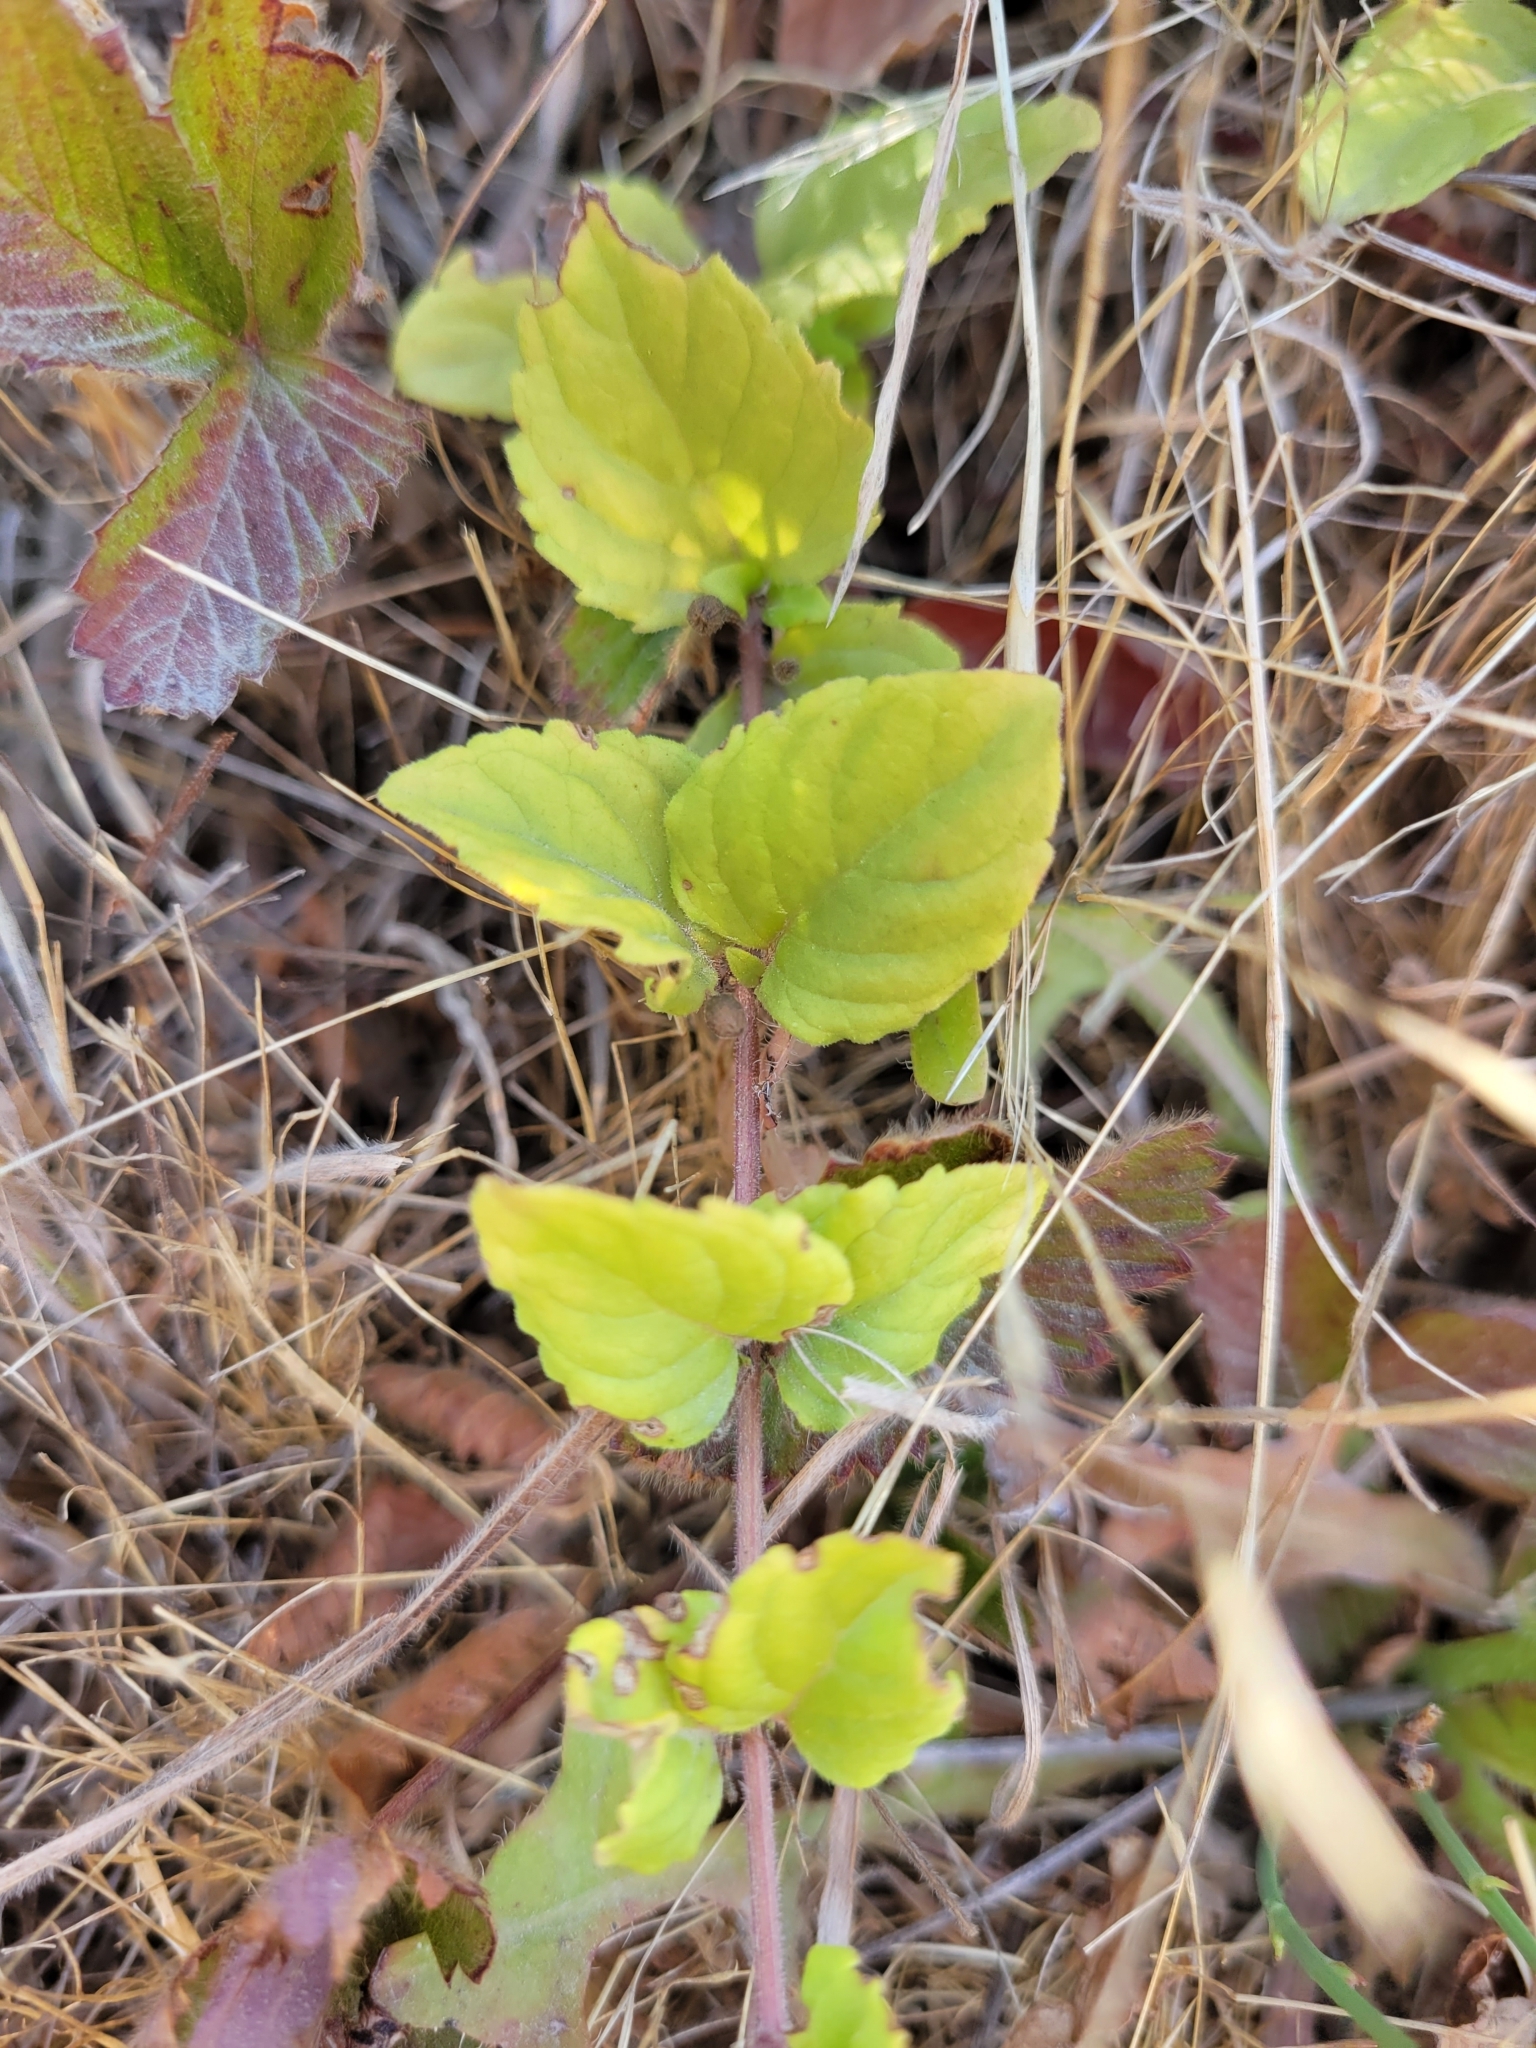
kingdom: Plantae
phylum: Tracheophyta
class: Magnoliopsida
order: Lamiales
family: Lamiaceae
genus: Micromeria
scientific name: Micromeria douglasii
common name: Yerba buena
